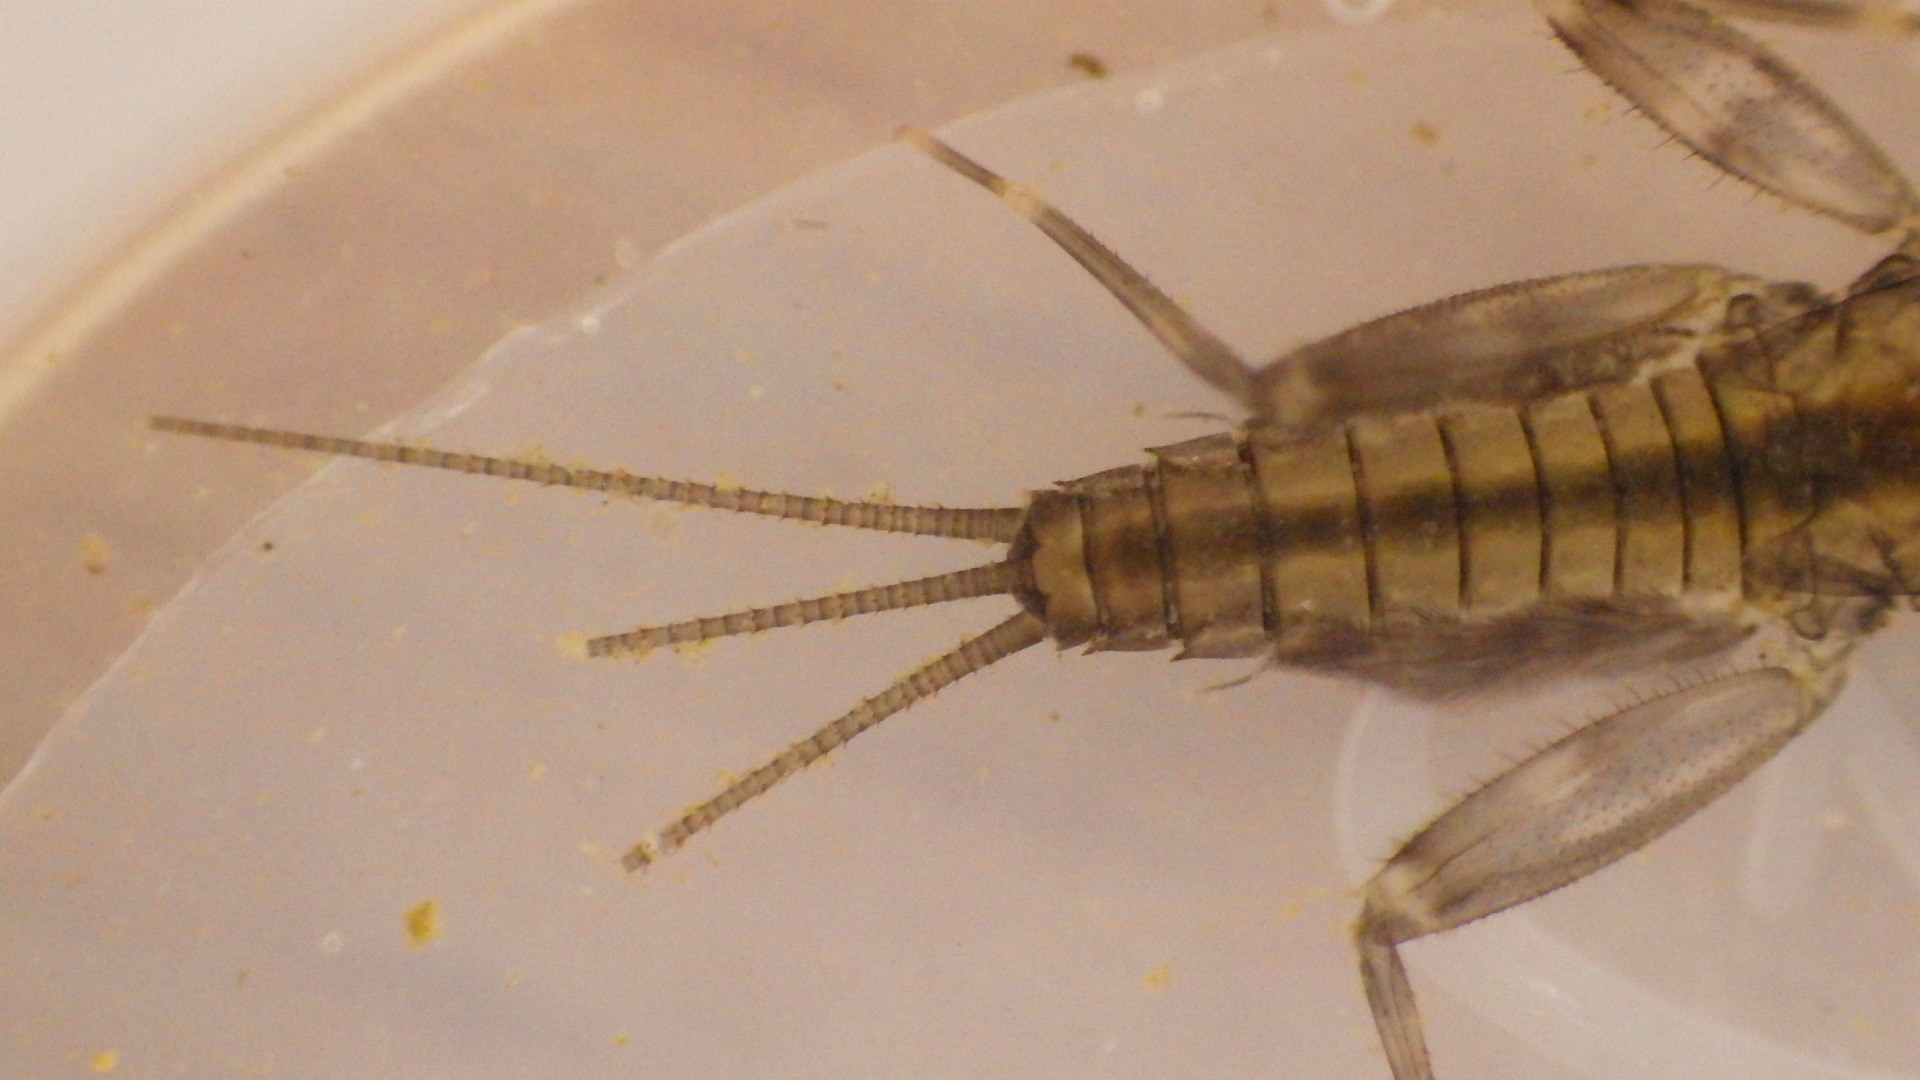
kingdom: Animalia
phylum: Arthropoda
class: Insecta
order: Ephemeroptera
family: Heptageniidae
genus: Stenacron
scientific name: Stenacron carolina
